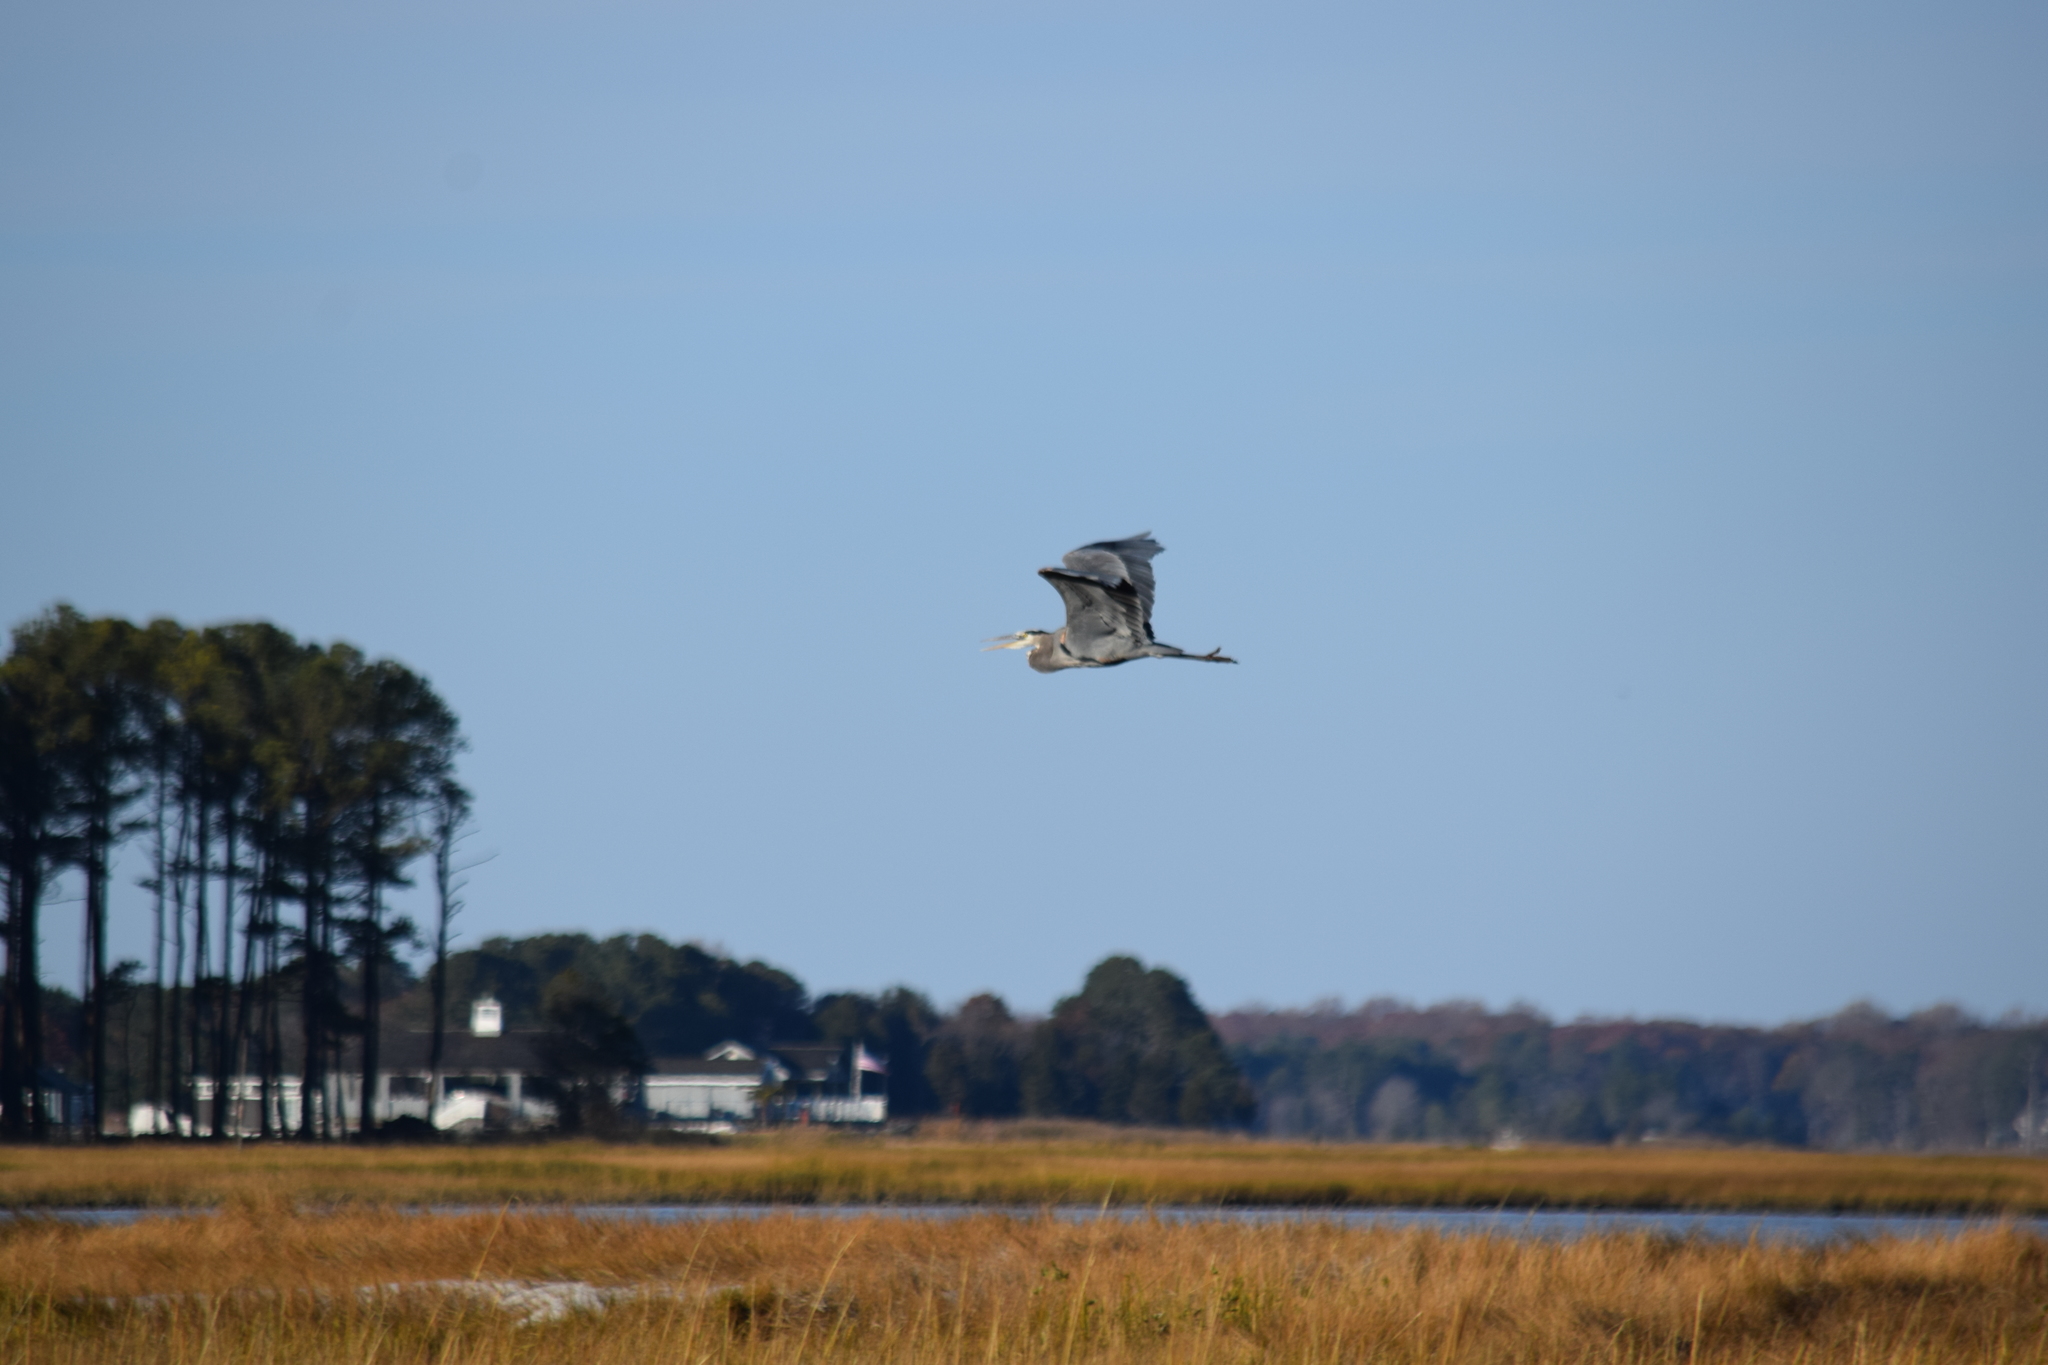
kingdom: Animalia
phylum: Chordata
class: Aves
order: Pelecaniformes
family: Ardeidae
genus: Ardea
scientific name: Ardea herodias
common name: Great blue heron
